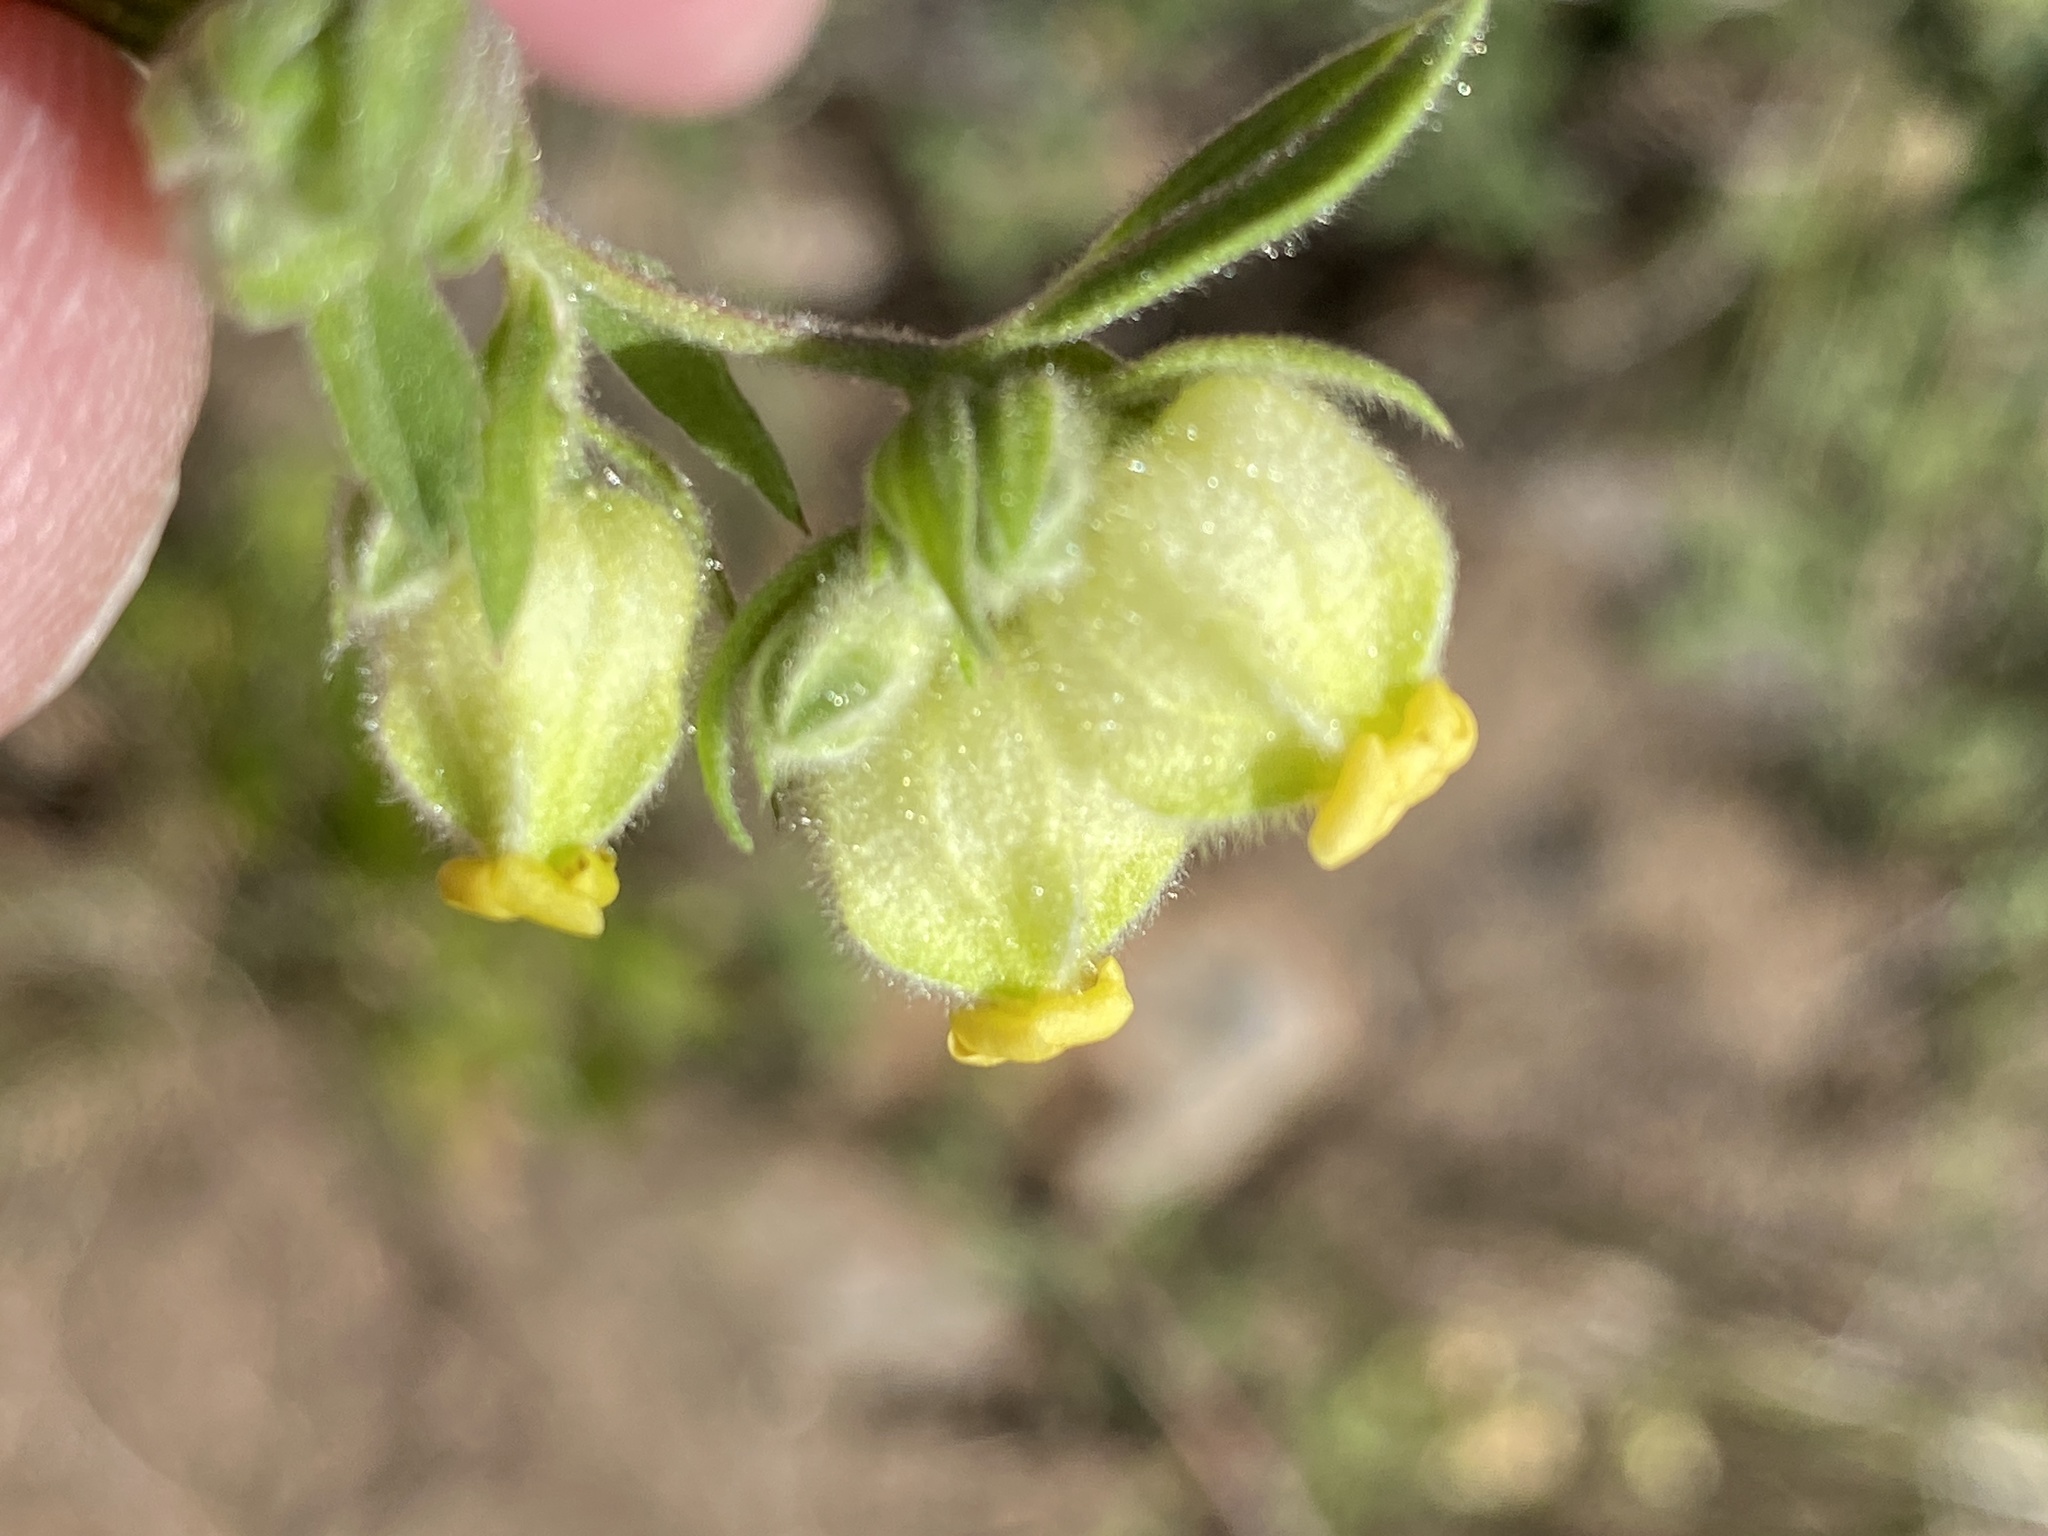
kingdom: Plantae
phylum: Tracheophyta
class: Magnoliopsida
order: Malvales
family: Malvaceae
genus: Hermannia
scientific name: Hermannia hyssopifolia
